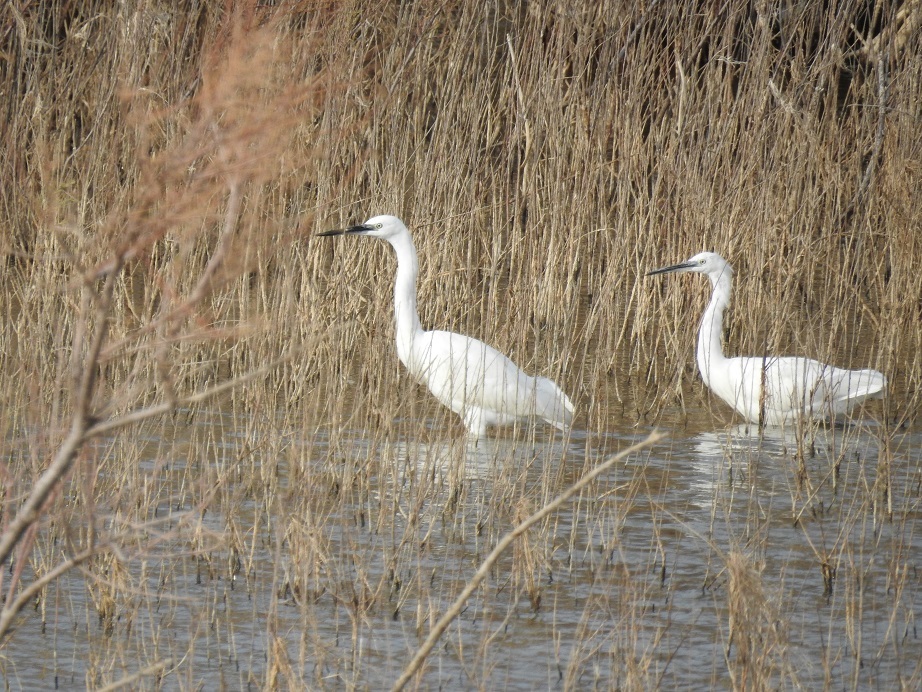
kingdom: Animalia
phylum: Chordata
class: Aves
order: Pelecaniformes
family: Ardeidae
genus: Egretta
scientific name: Egretta garzetta
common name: Little egret
